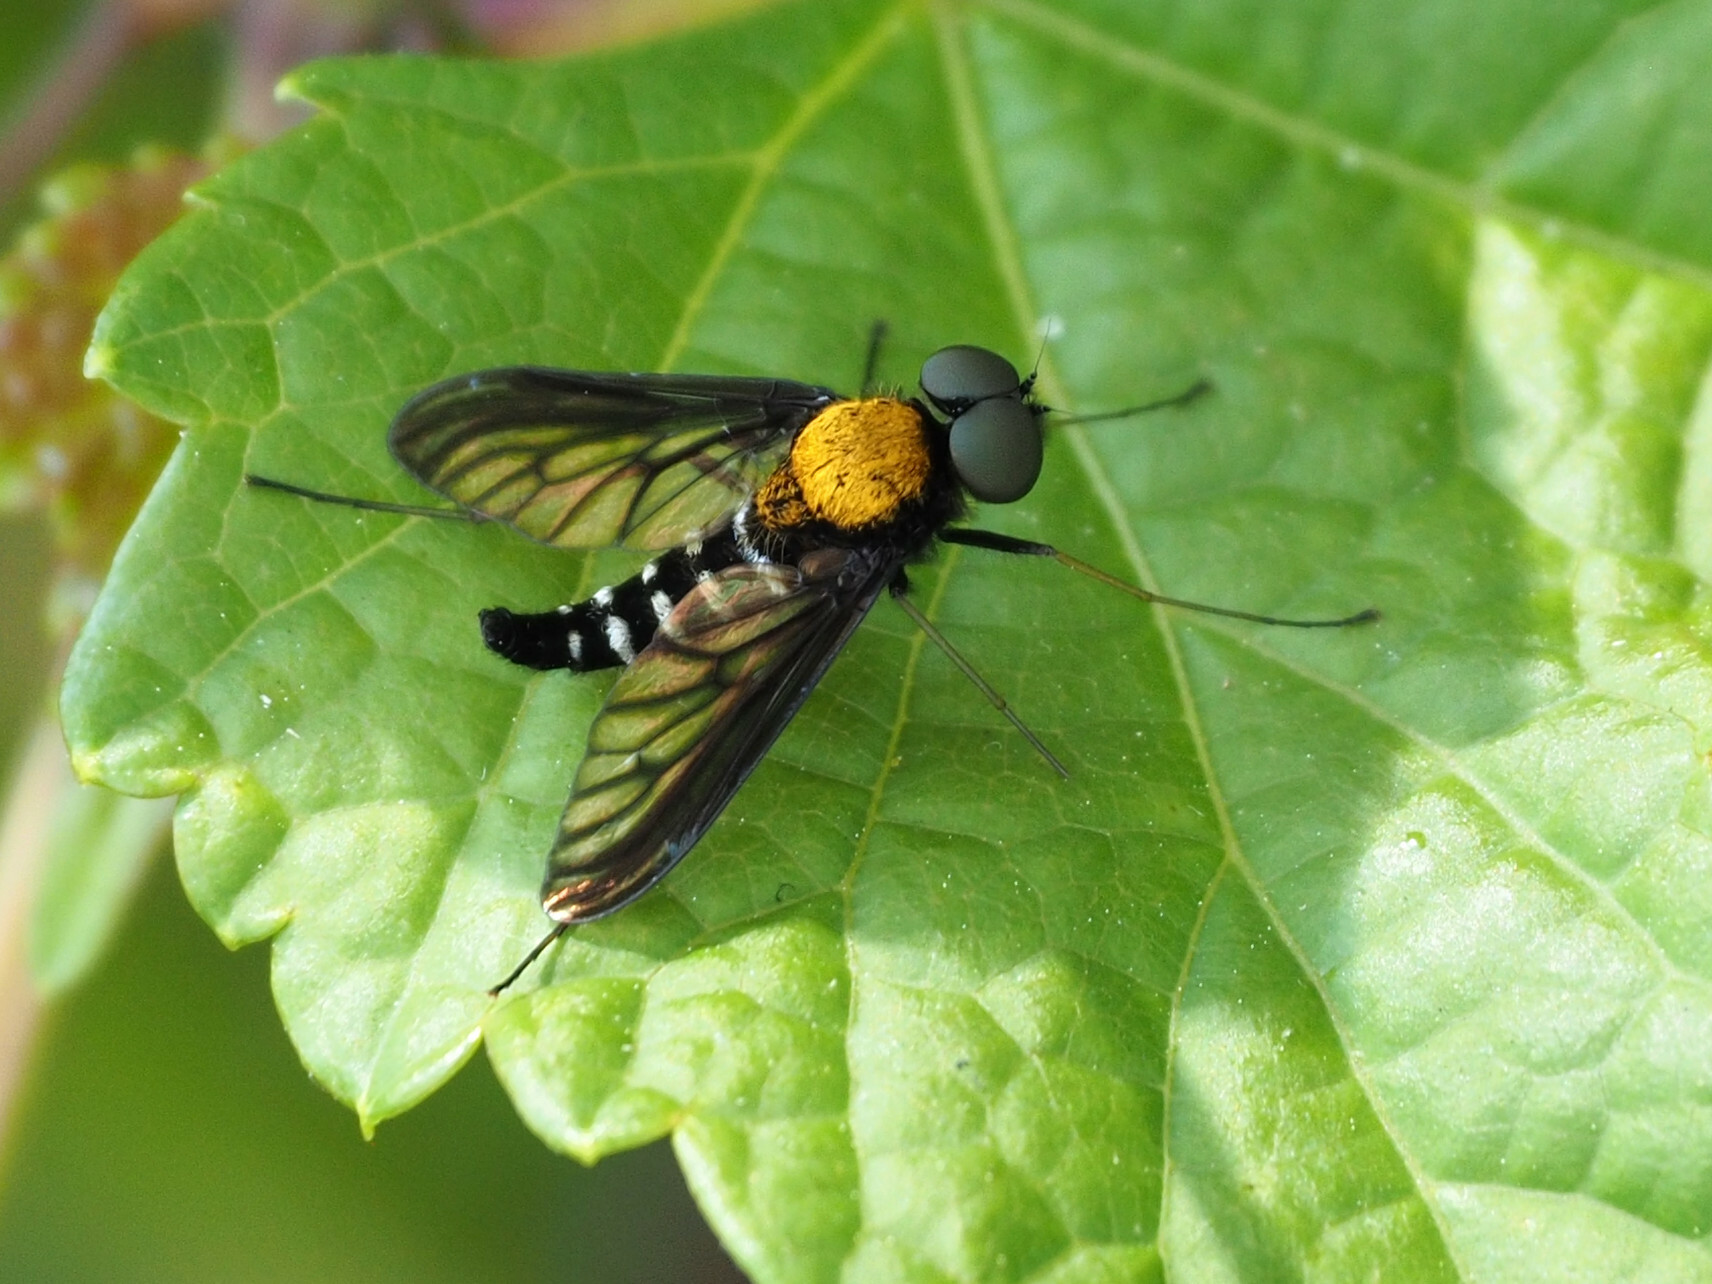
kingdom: Animalia
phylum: Arthropoda
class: Insecta
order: Diptera
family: Rhagionidae
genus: Chrysopilus
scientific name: Chrysopilus thoracicus
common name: Golden-backed snipe fly
